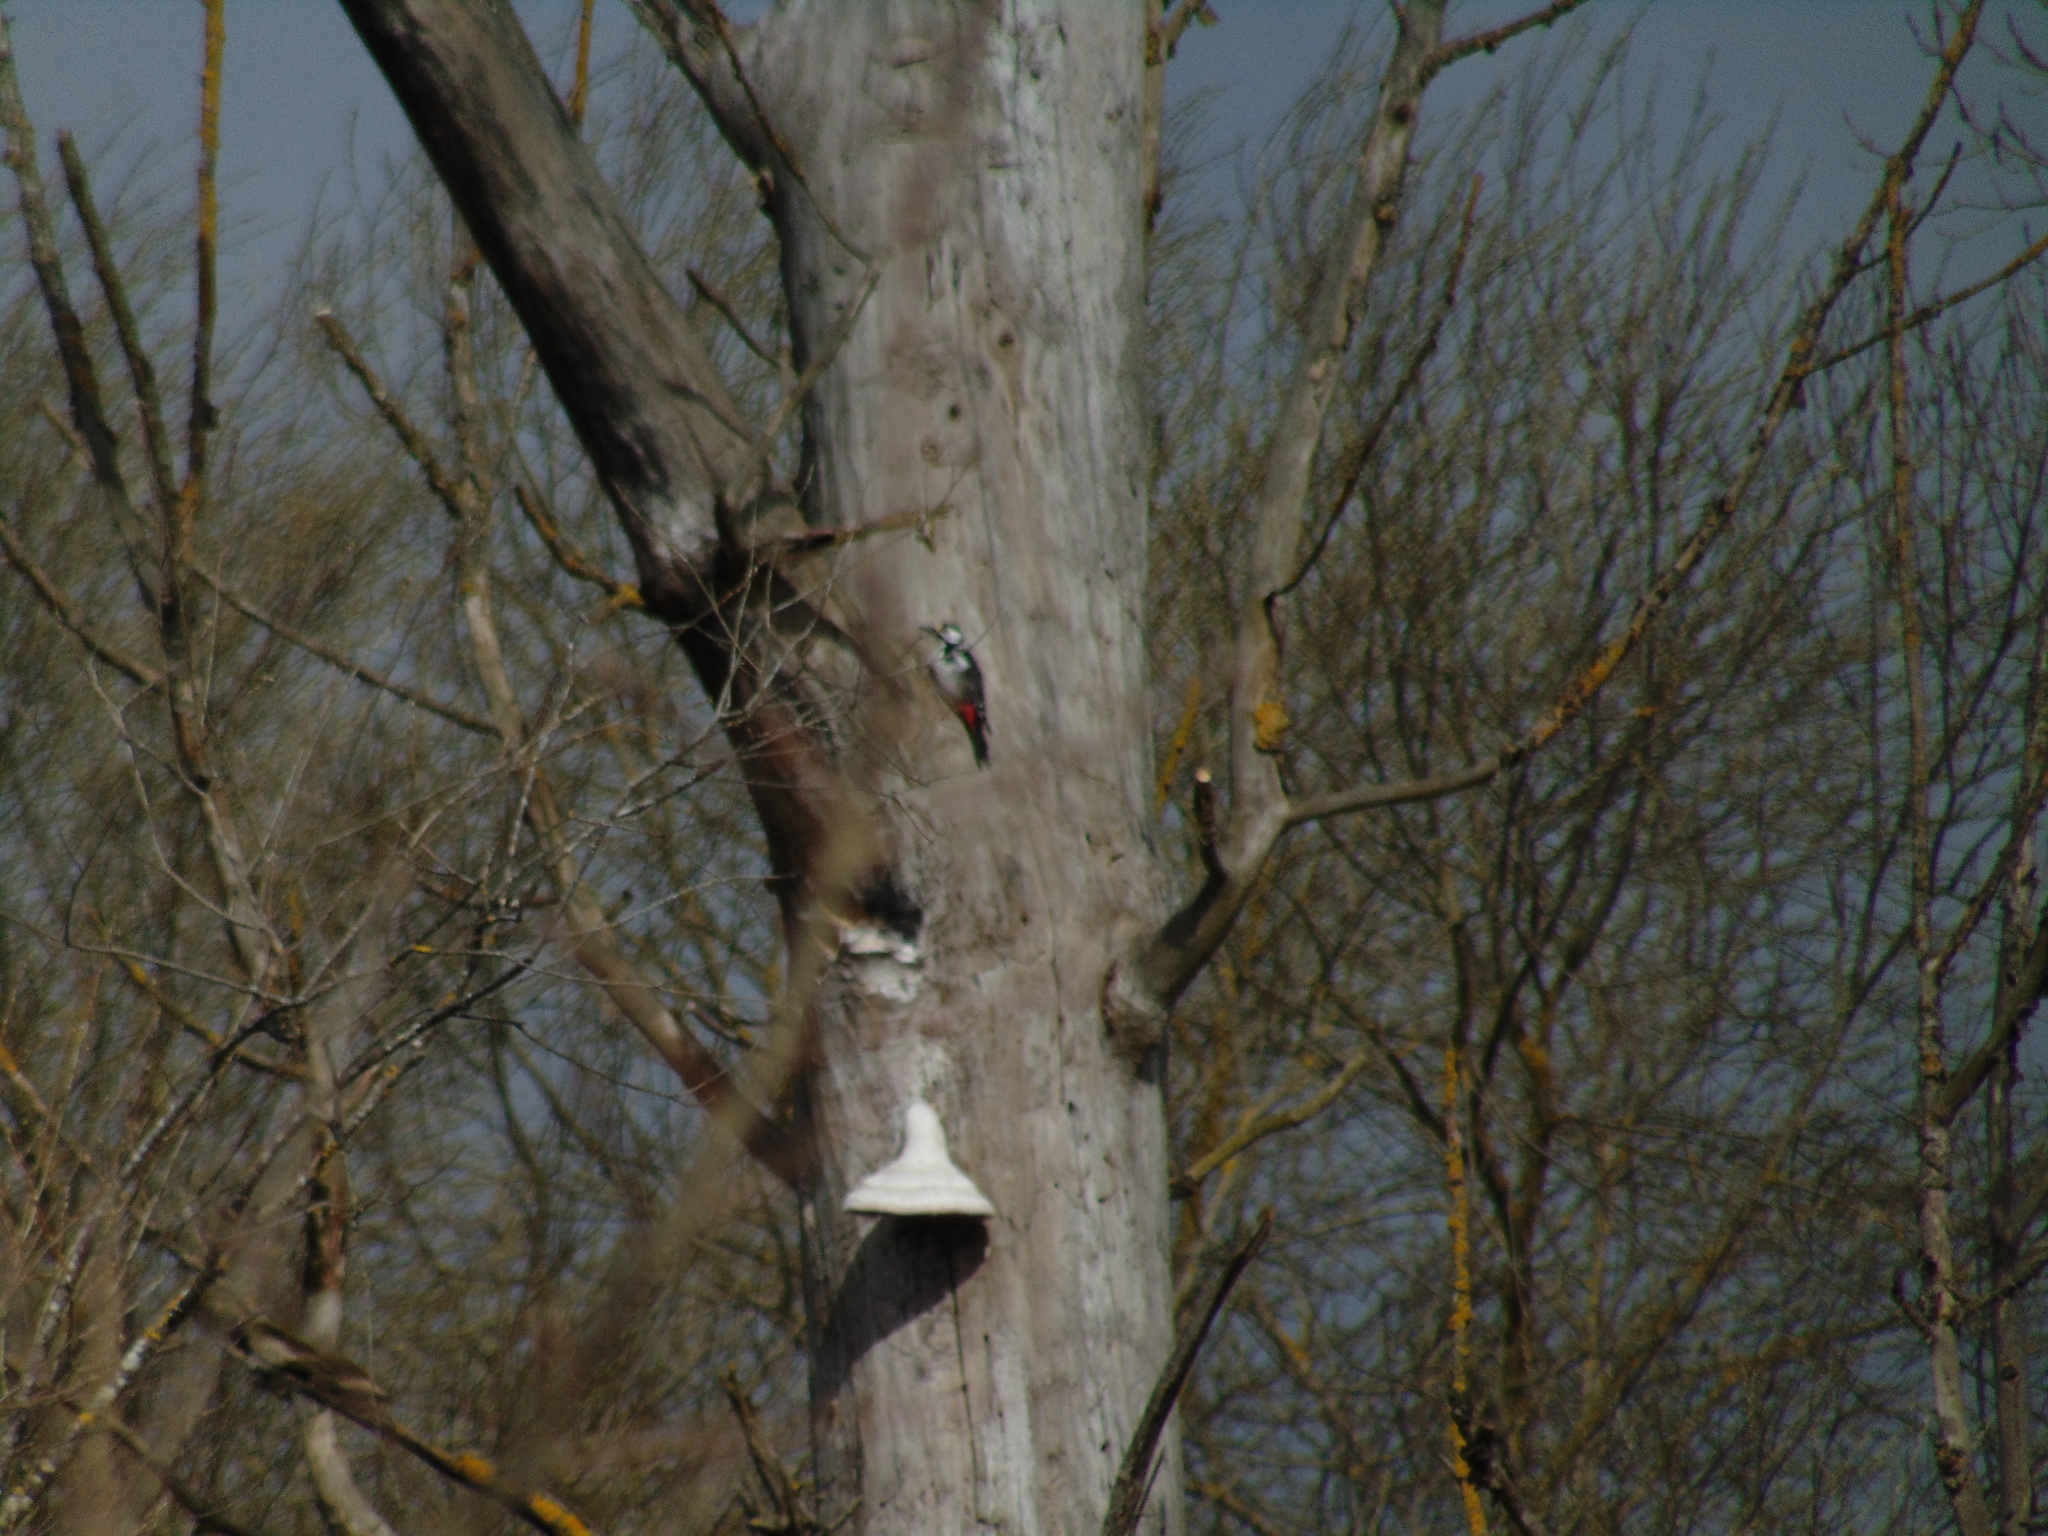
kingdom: Animalia
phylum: Chordata
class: Aves
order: Piciformes
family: Picidae
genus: Dendrocopos
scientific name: Dendrocopos major
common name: Great spotted woodpecker
